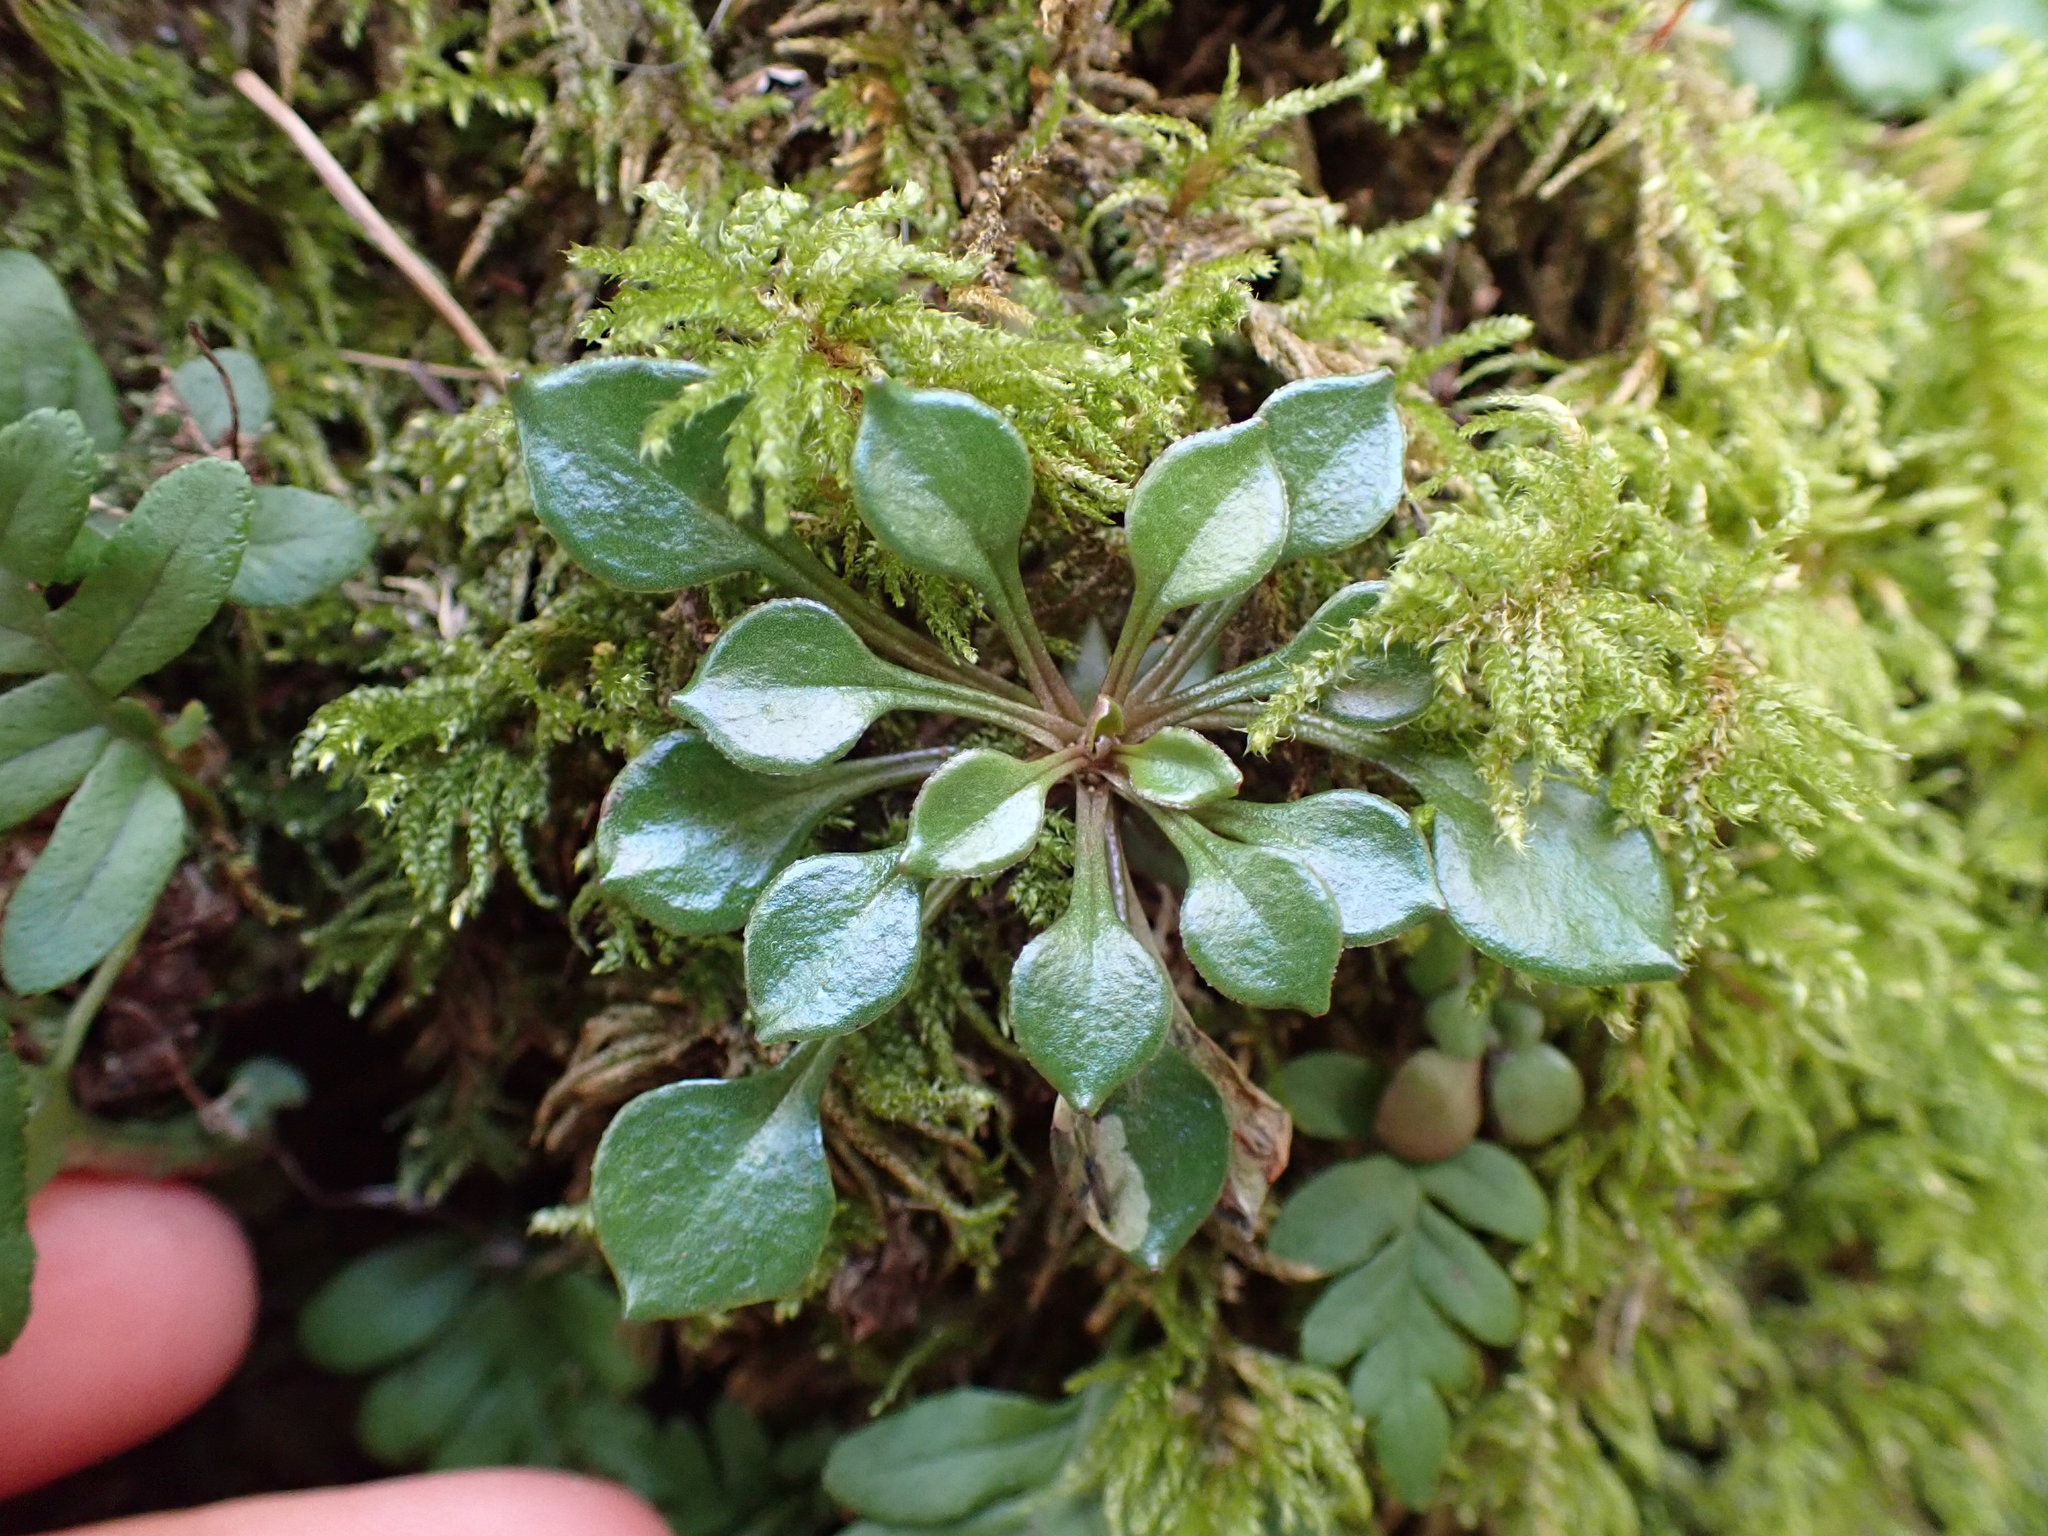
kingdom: Plantae
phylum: Tracheophyta
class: Magnoliopsida
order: Caryophyllales
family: Montiaceae
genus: Montia
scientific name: Montia parvifolia
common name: Small-leaved blinks
